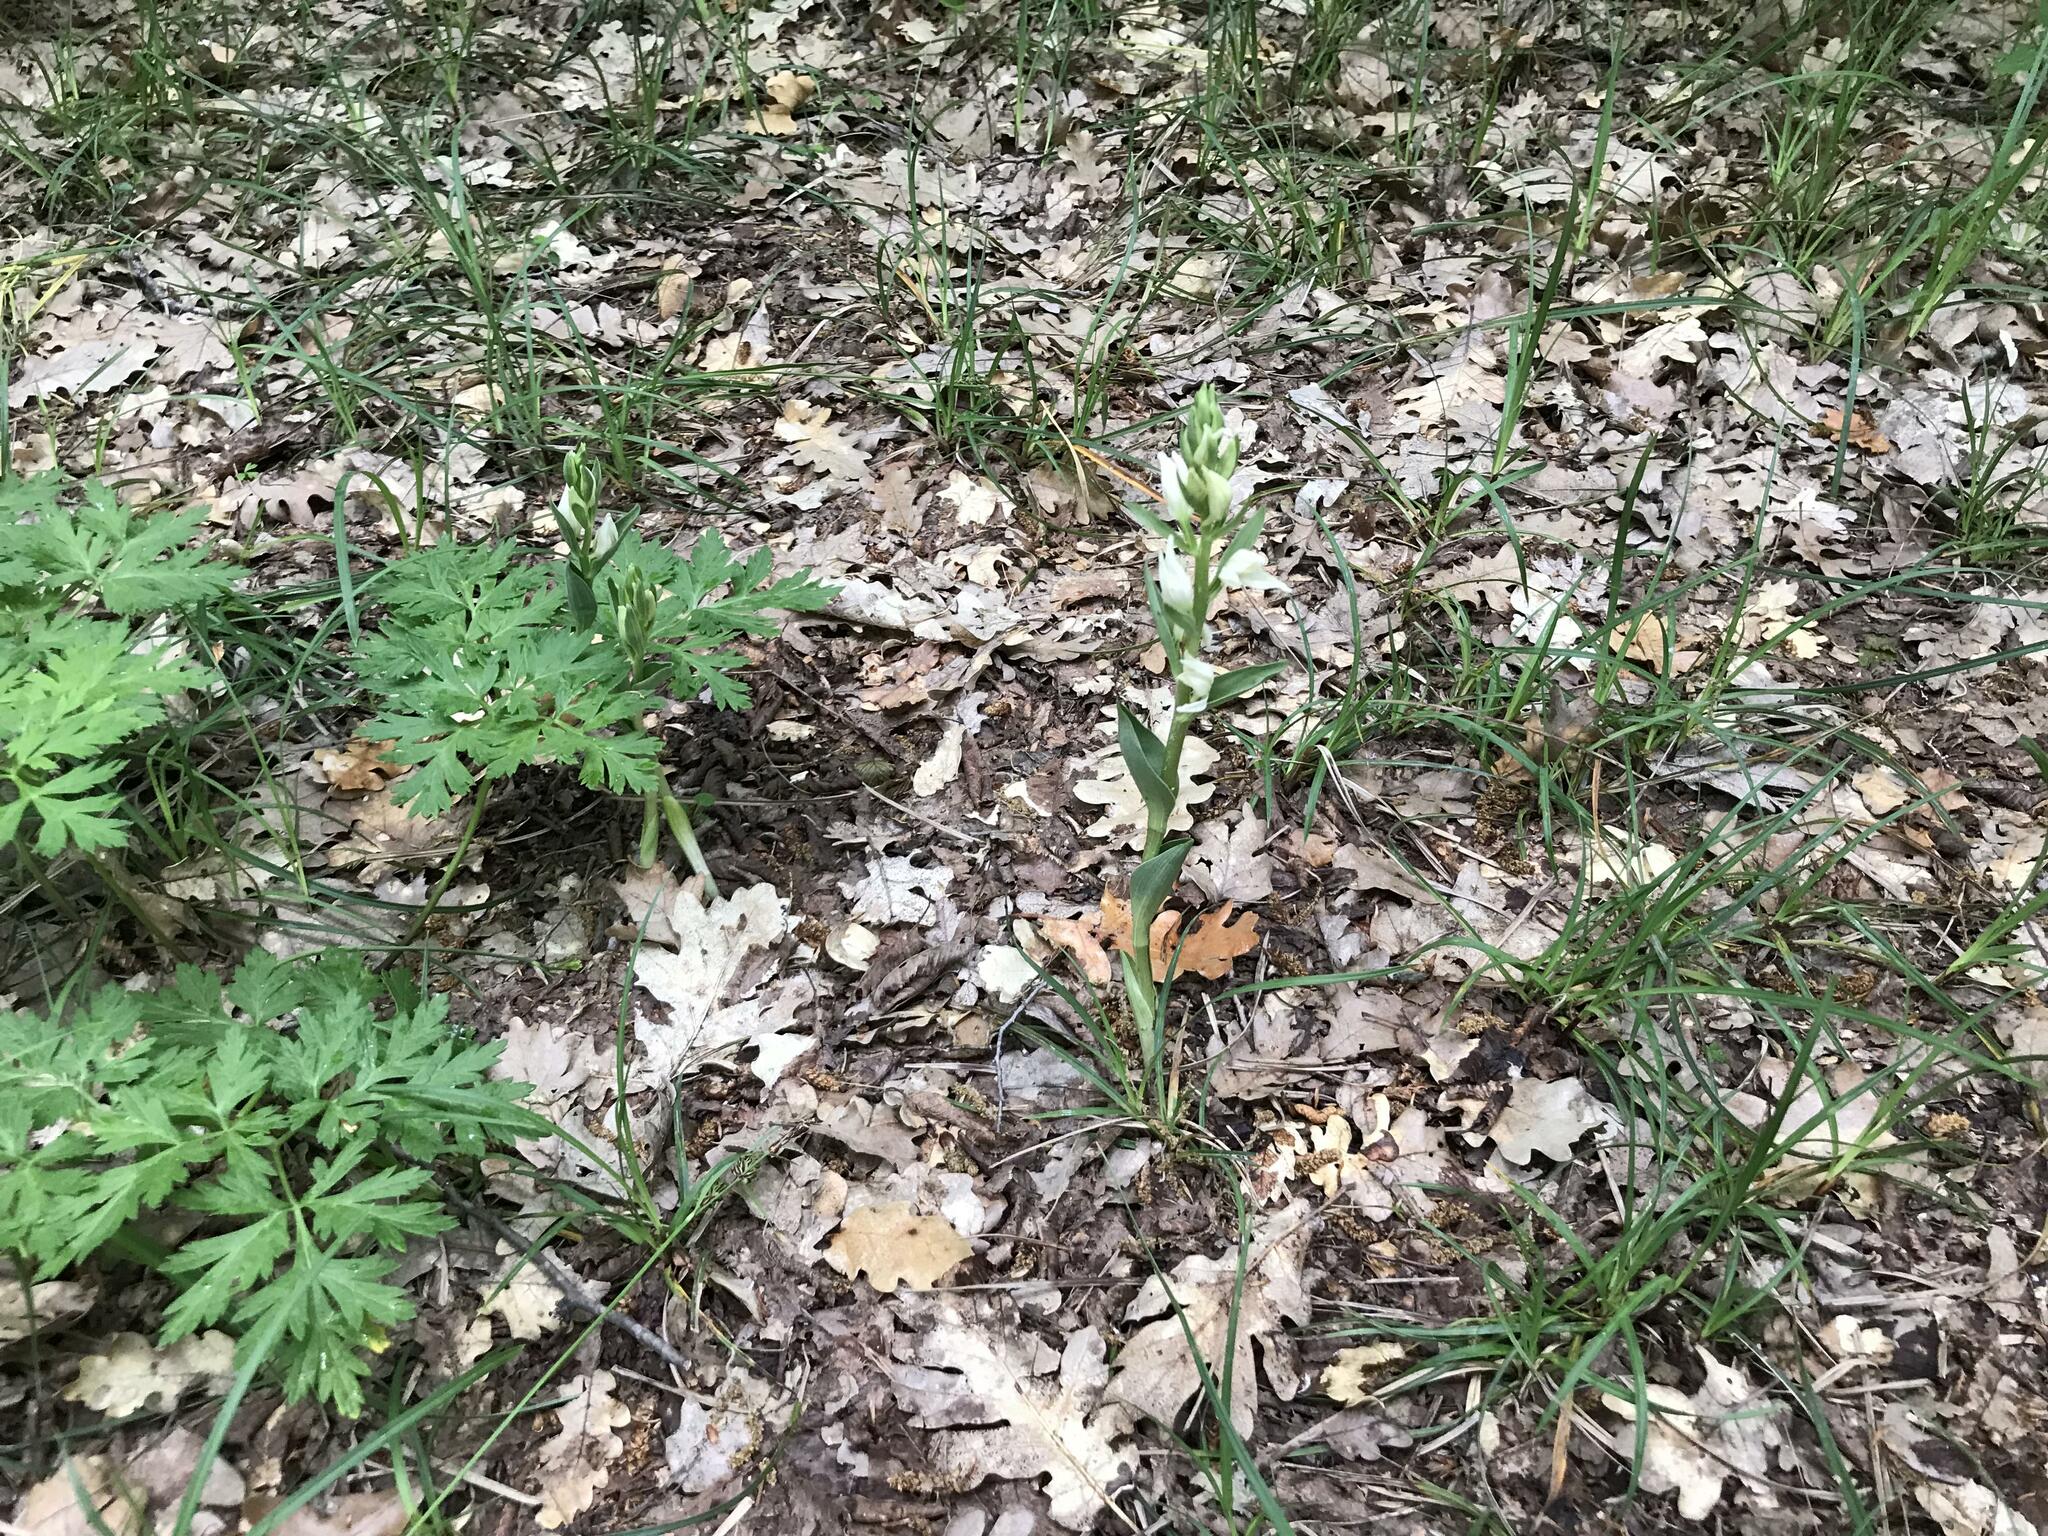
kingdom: Plantae
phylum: Tracheophyta
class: Liliopsida
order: Asparagales
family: Orchidaceae
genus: Cephalanthera
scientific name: Cephalanthera damasonium
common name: White helleborine
